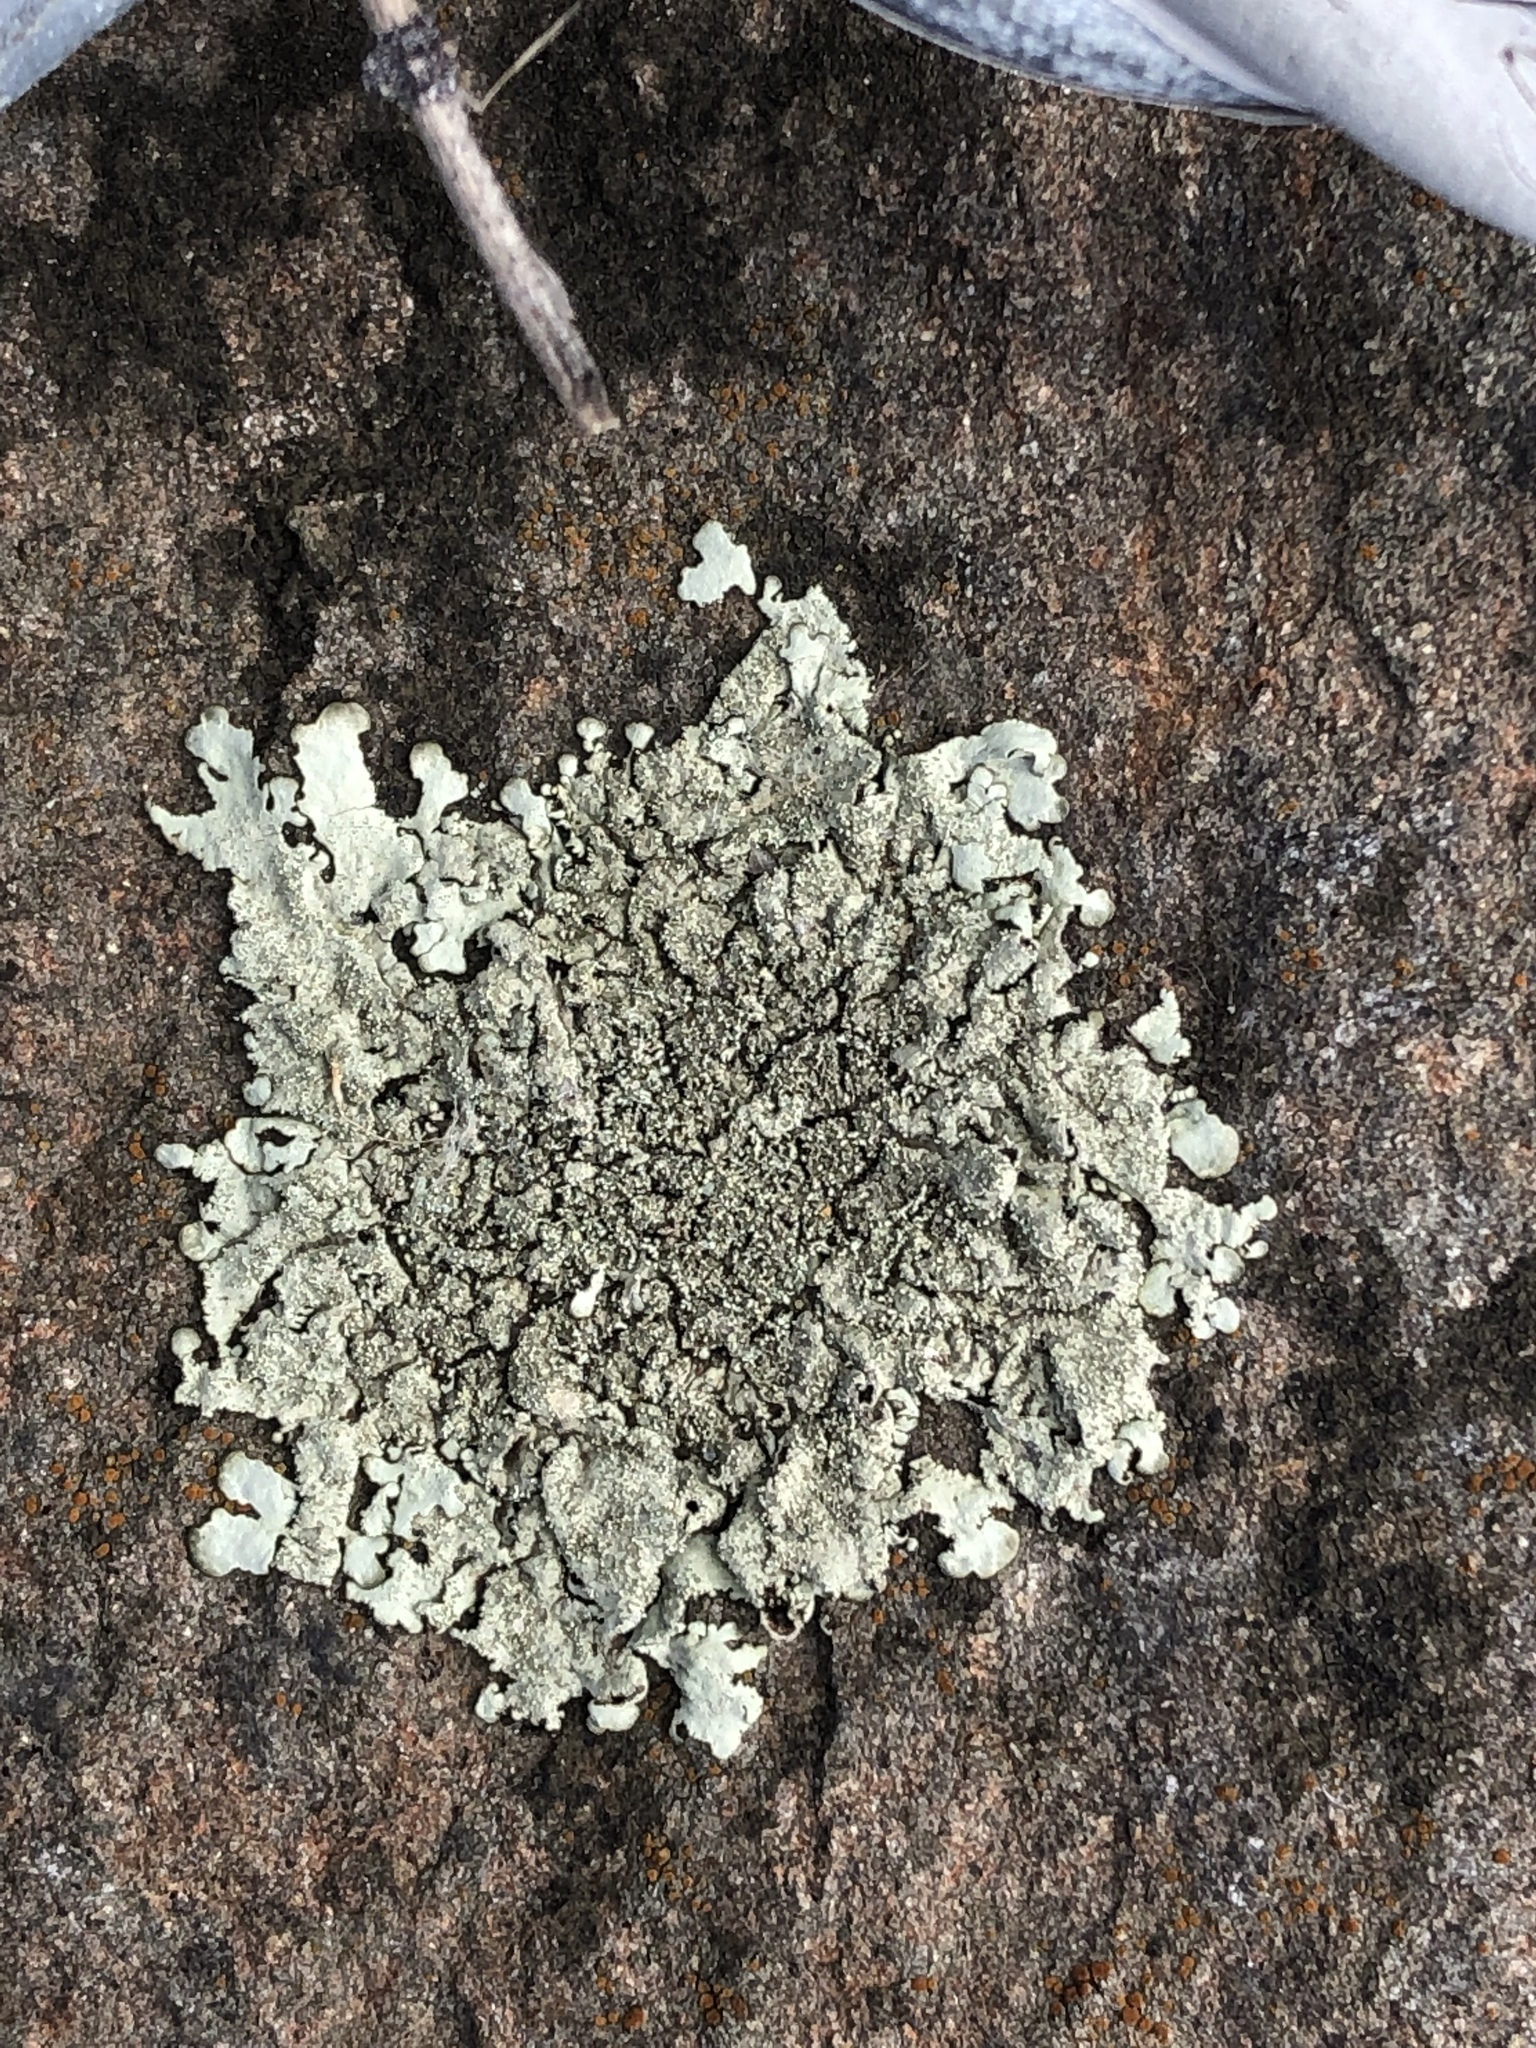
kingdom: Fungi
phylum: Ascomycota
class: Lecanoromycetes
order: Lecanorales
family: Parmeliaceae
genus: Flavoparmelia
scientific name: Flavoparmelia caperata
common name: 40-mile per hour lichen
